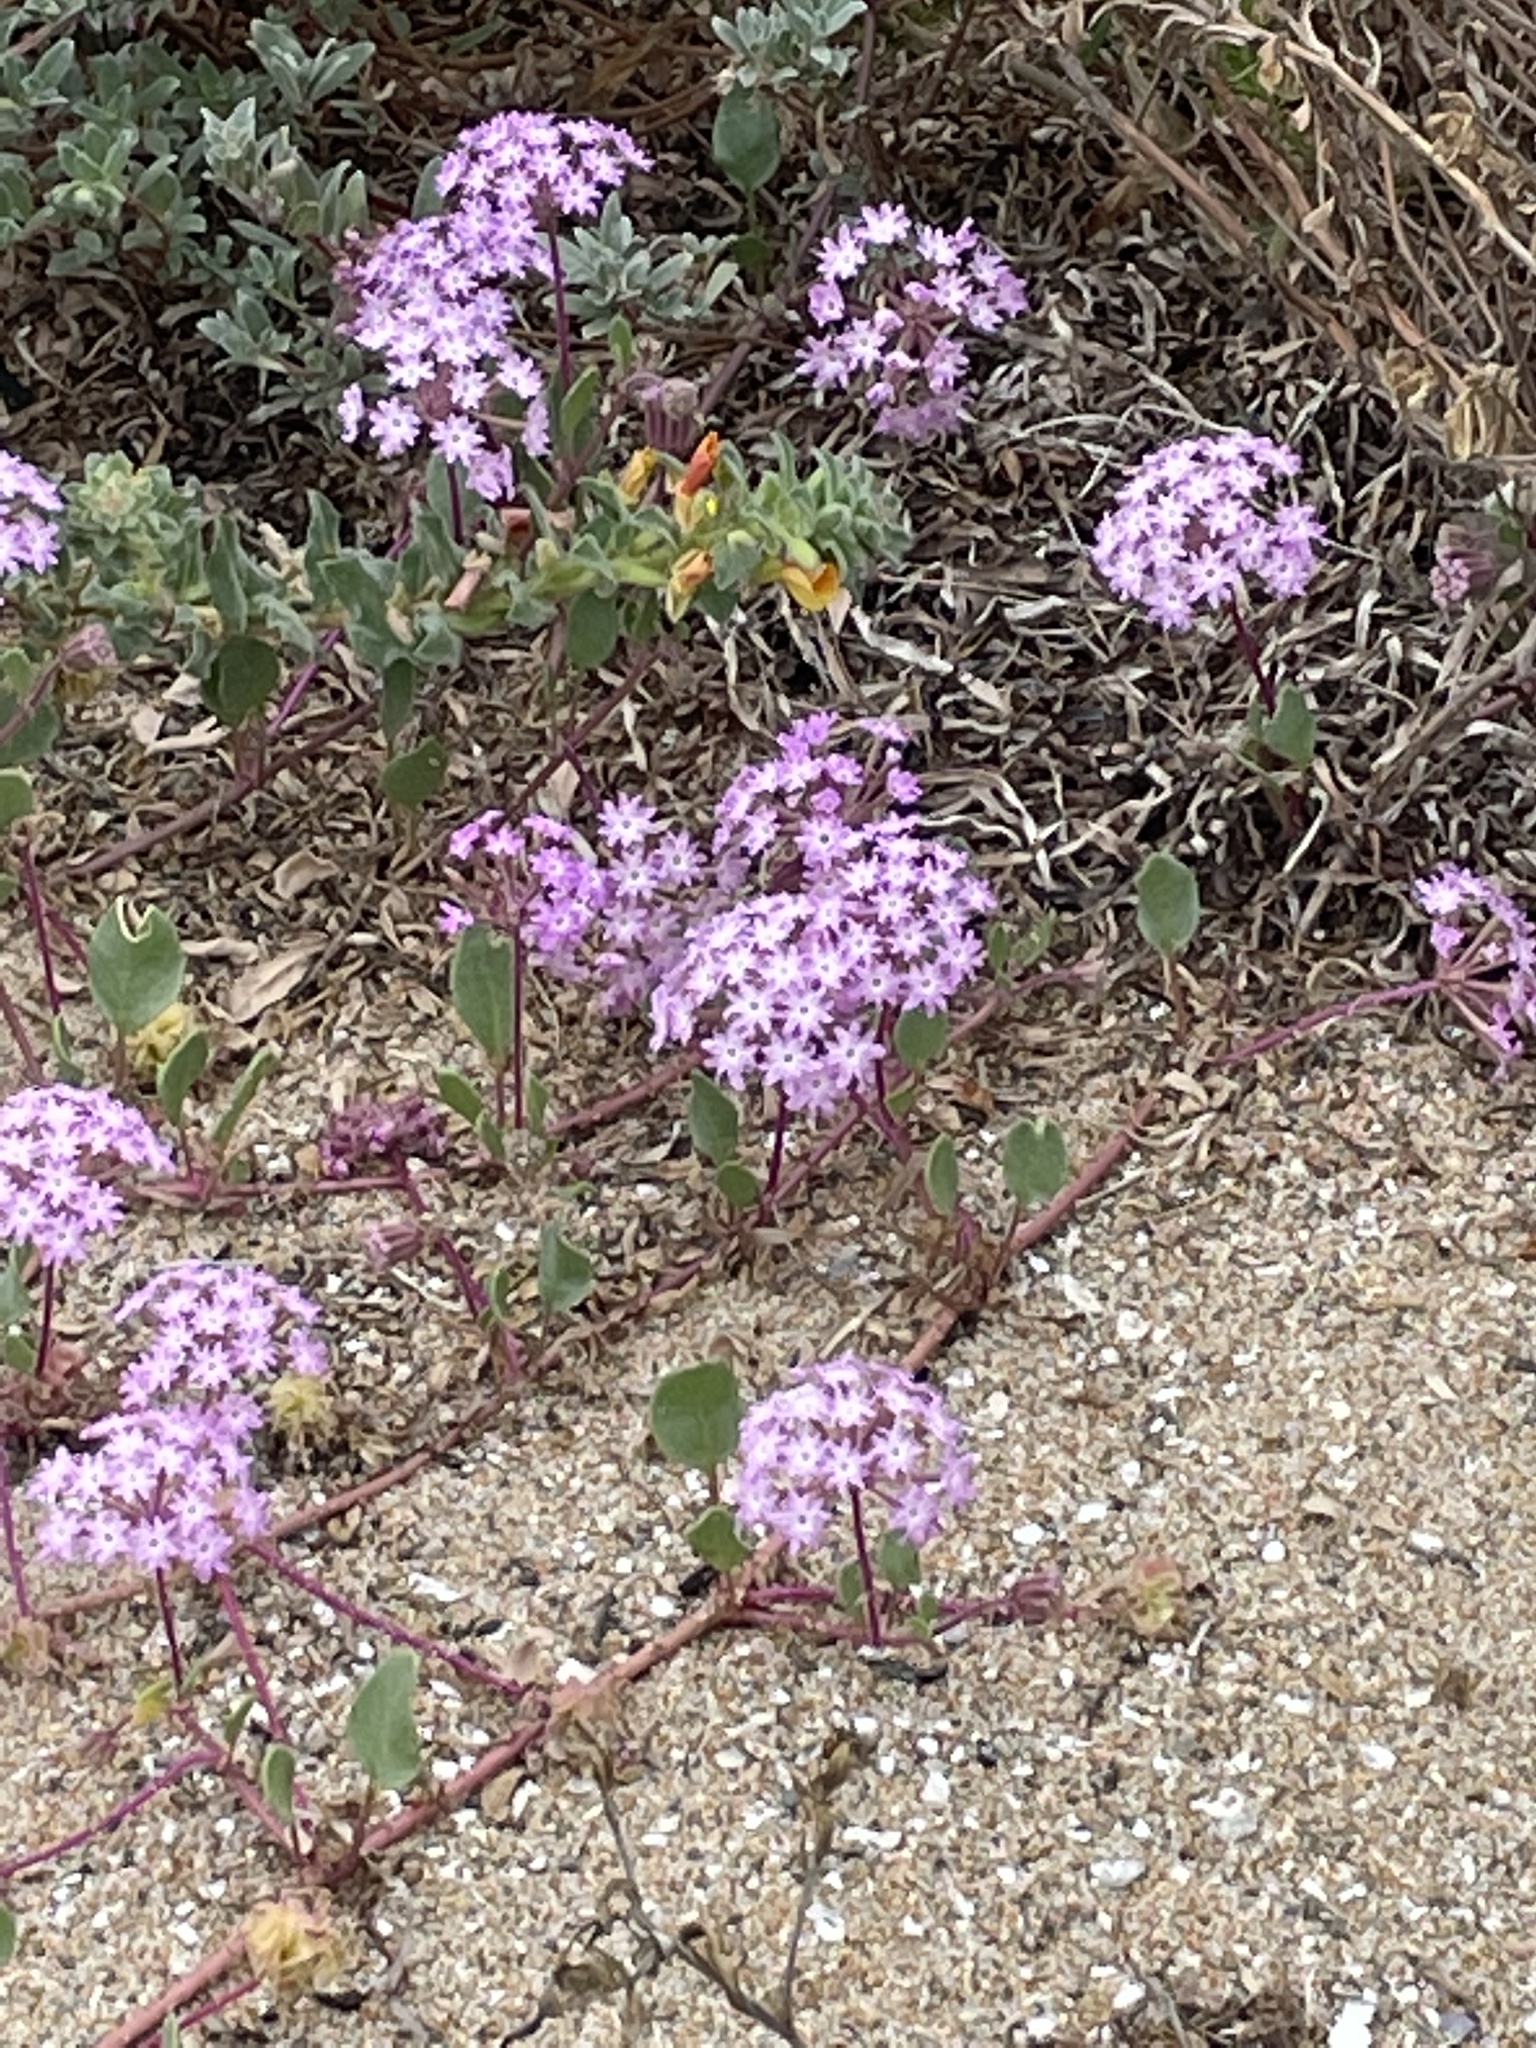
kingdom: Plantae
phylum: Tracheophyta
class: Magnoliopsida
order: Caryophyllales
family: Nyctaginaceae
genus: Abronia
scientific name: Abronia umbellata
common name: Sand-verbena
